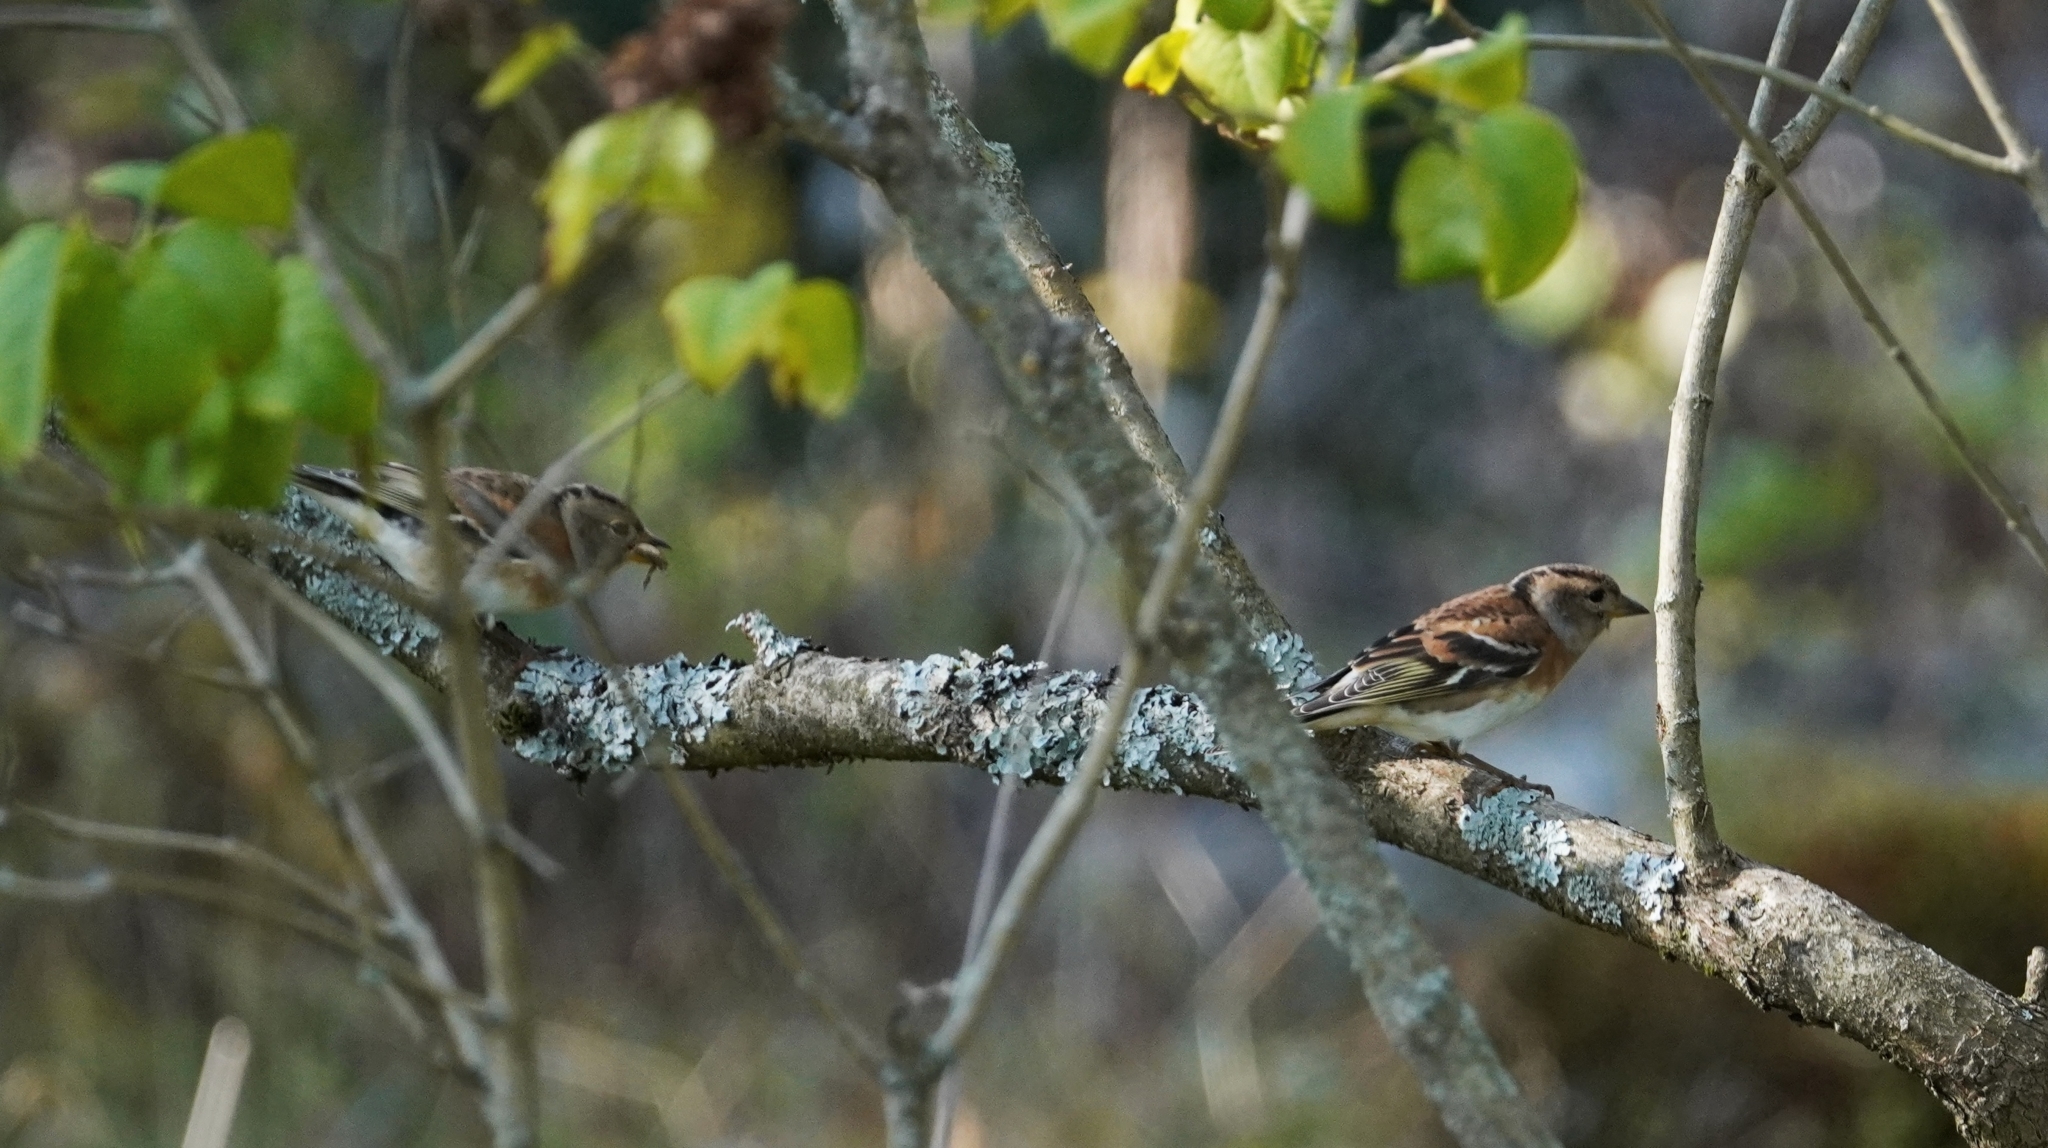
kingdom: Animalia
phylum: Chordata
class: Aves
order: Passeriformes
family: Fringillidae
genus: Fringilla
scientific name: Fringilla montifringilla
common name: Brambling
